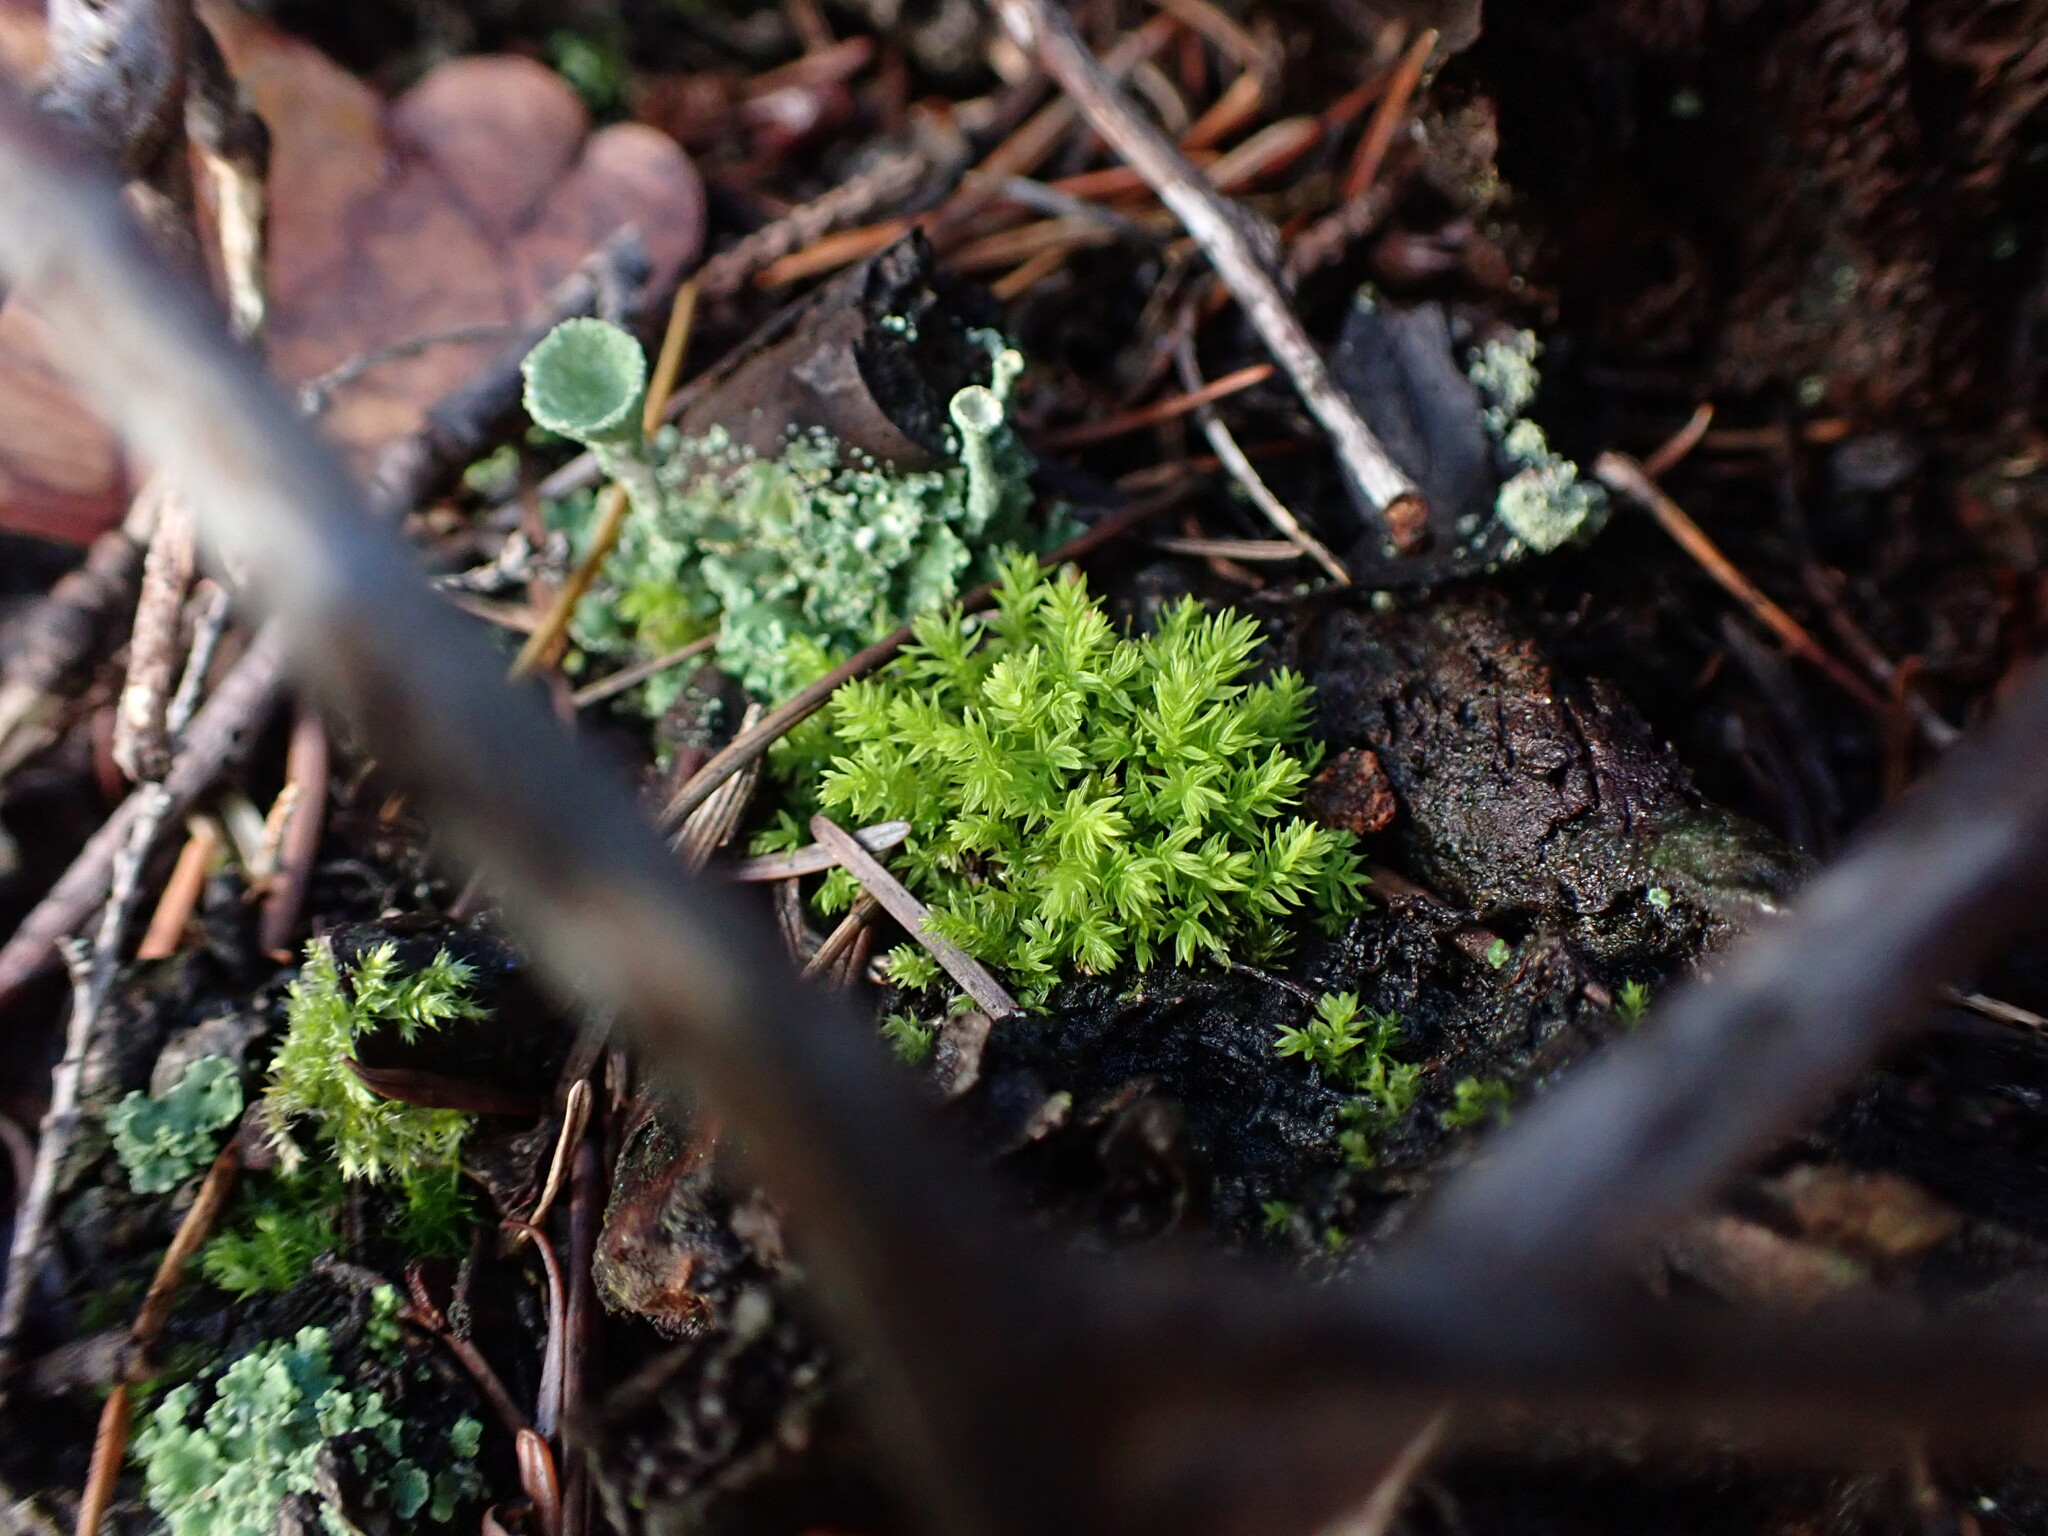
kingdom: Plantae
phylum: Bryophyta
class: Bryopsida
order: Aulacomniales
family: Aulacomniaceae
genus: Aulacomnium
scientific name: Aulacomnium androgynum
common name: Little groove moss
